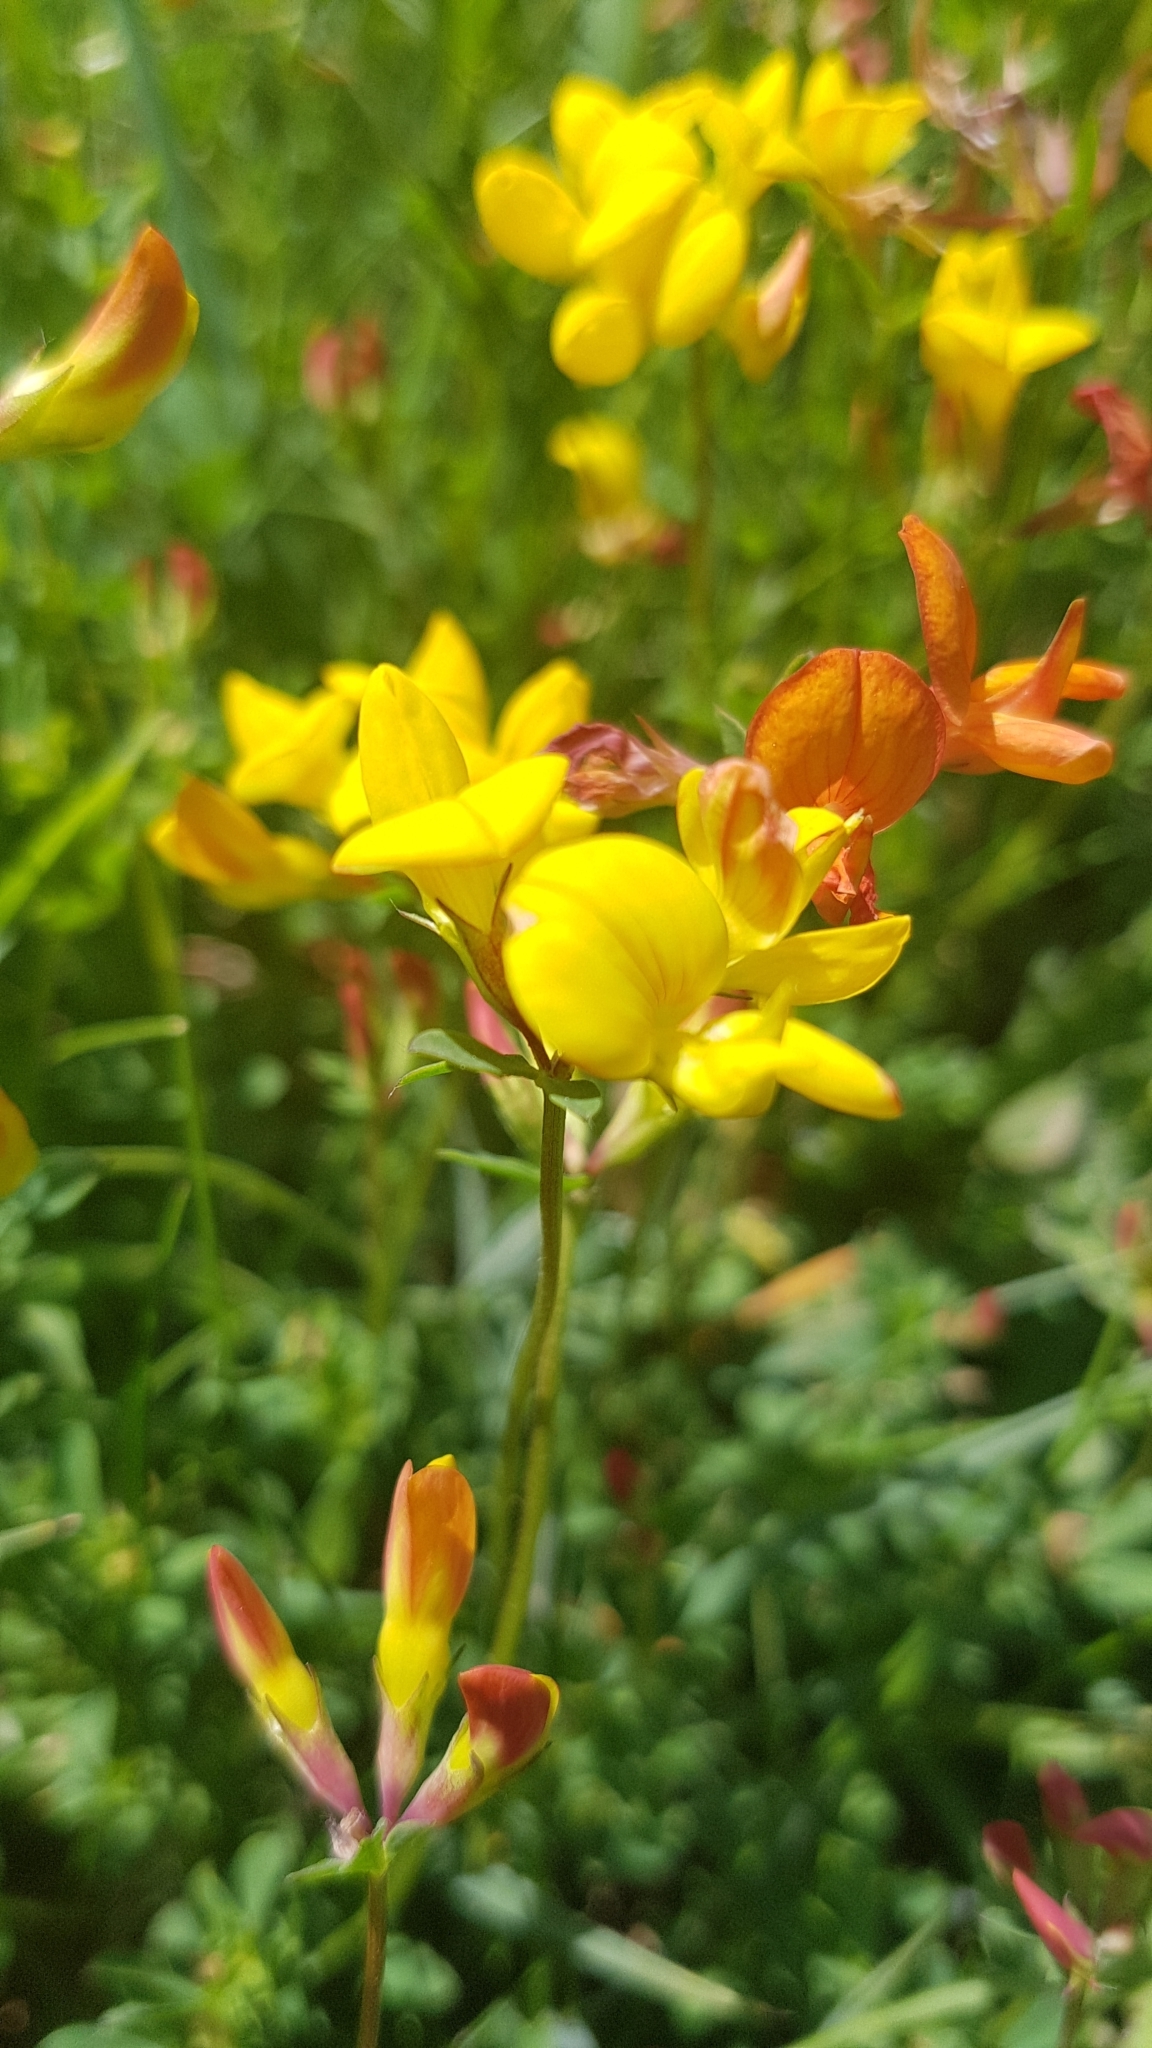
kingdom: Plantae
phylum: Tracheophyta
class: Magnoliopsida
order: Fabales
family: Fabaceae
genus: Lotus
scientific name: Lotus corniculatus
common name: Common bird's-foot-trefoil
